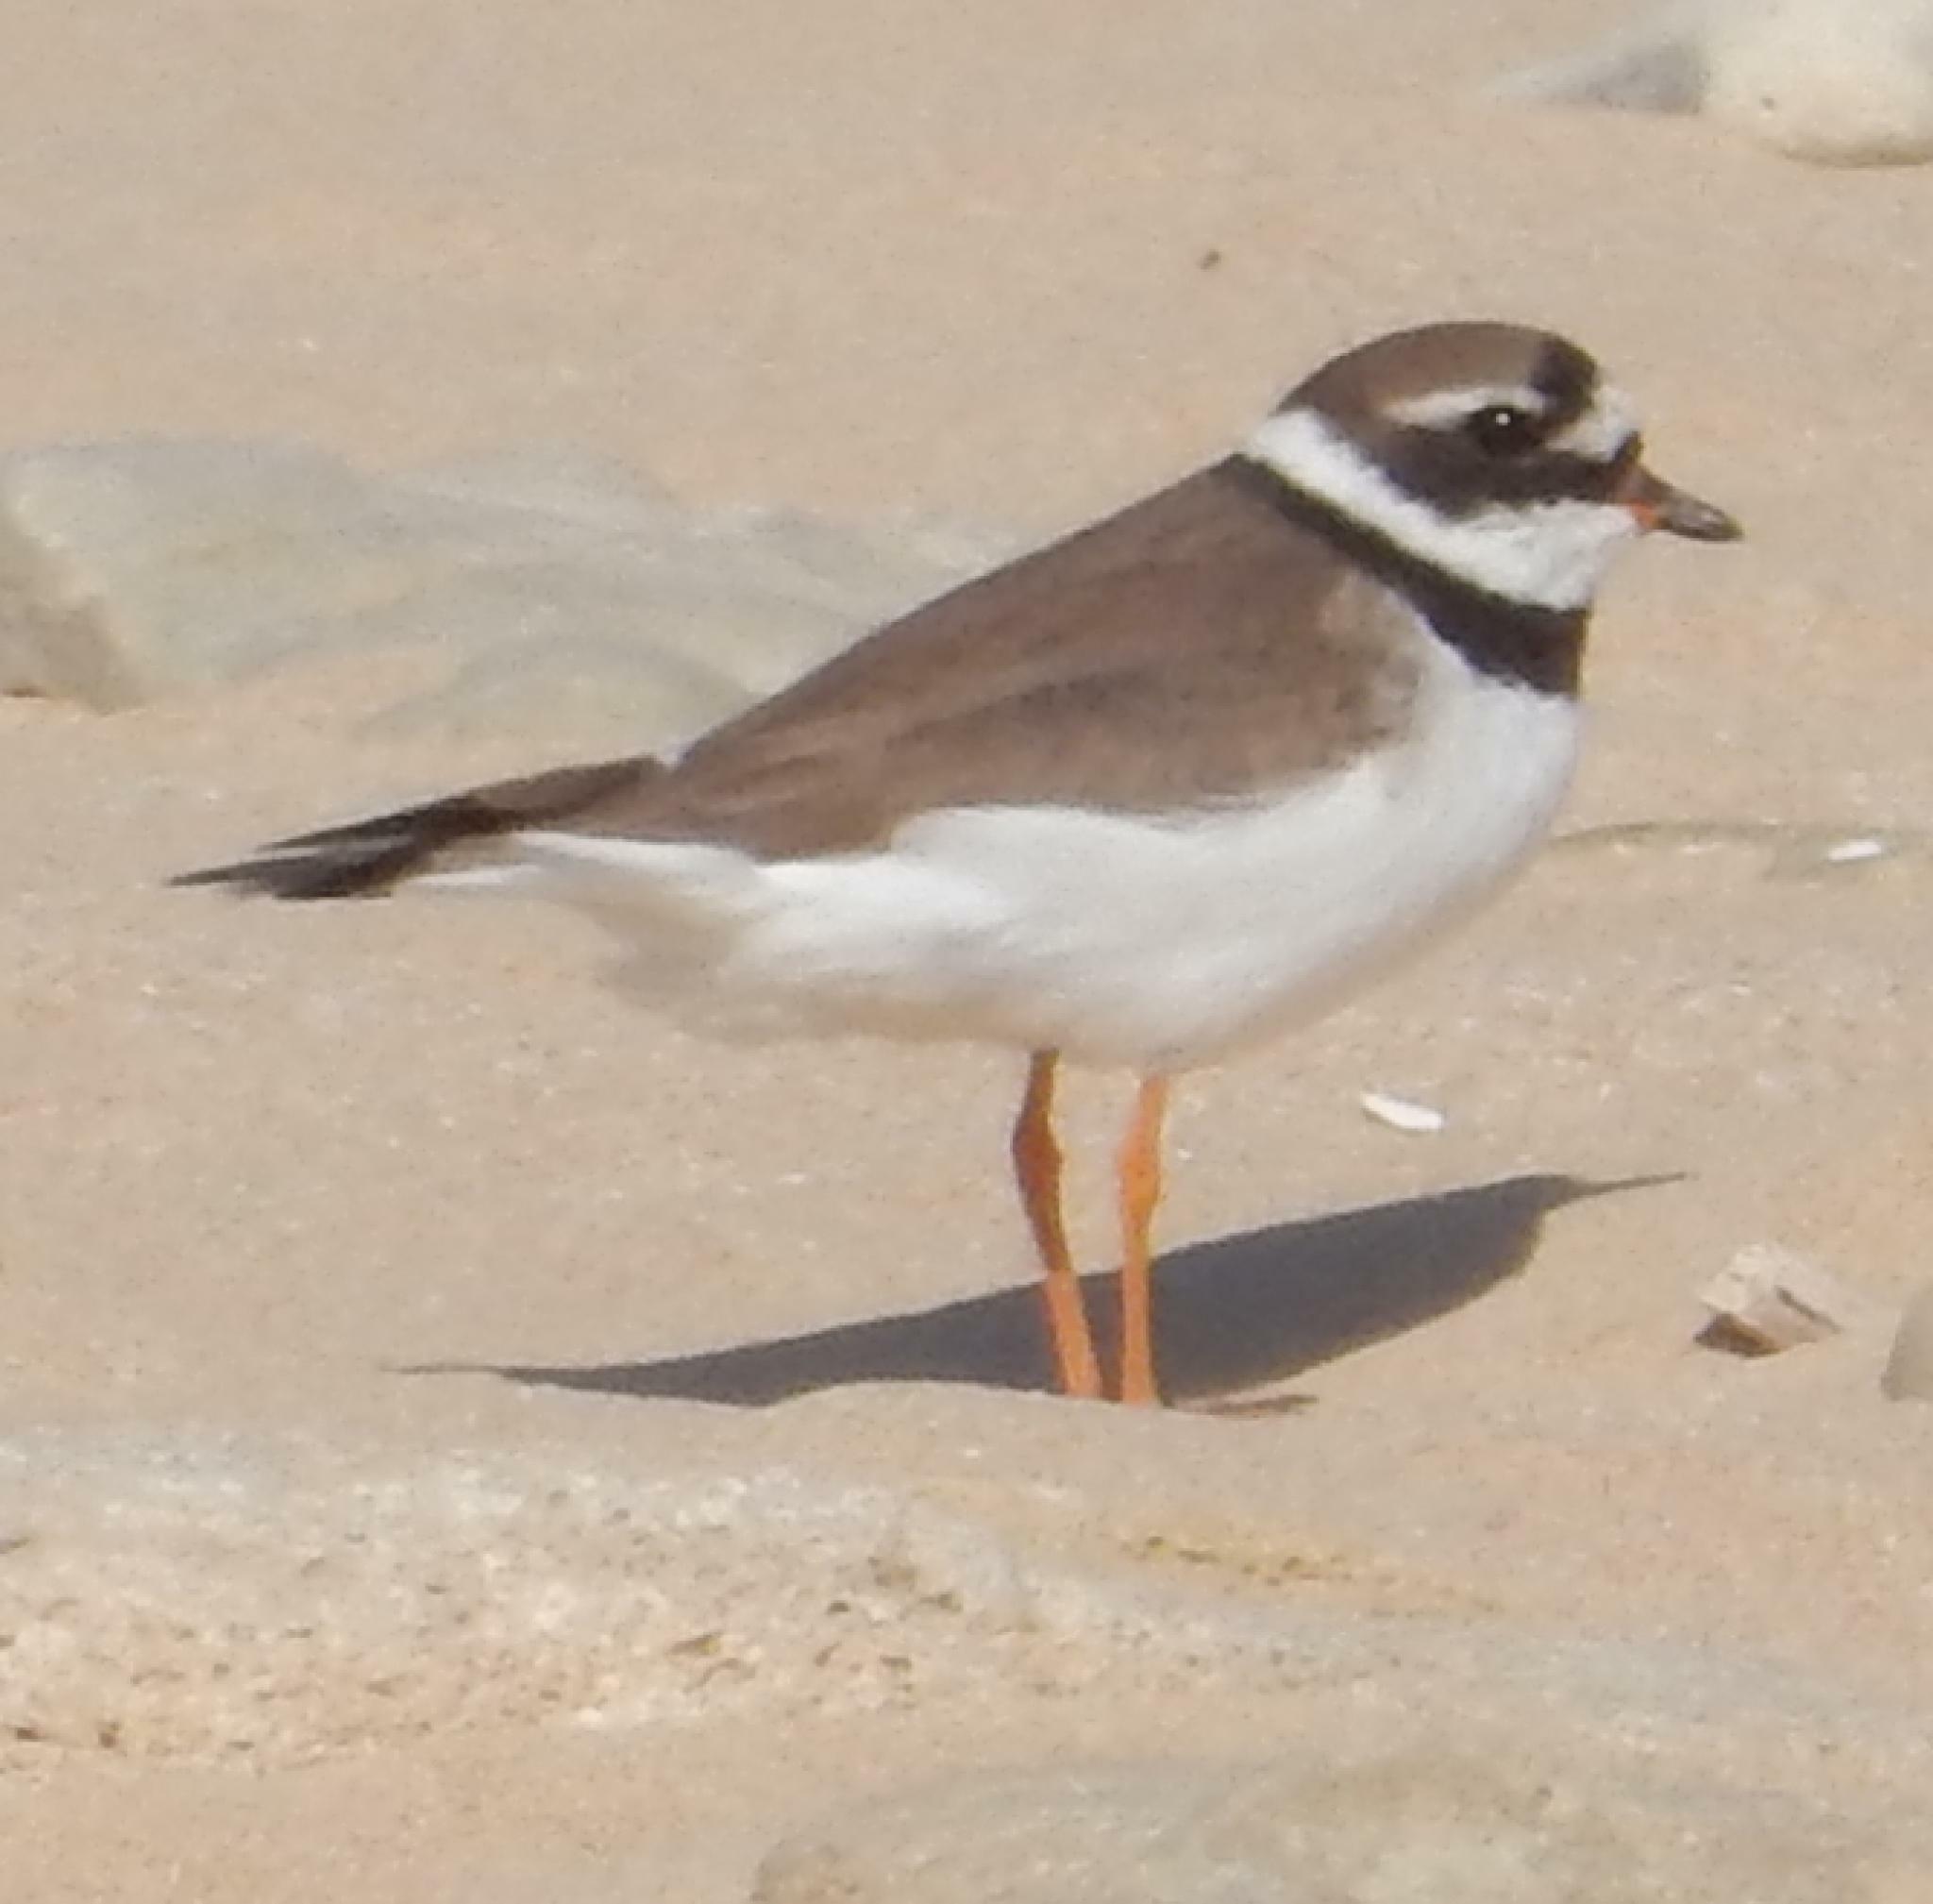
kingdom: Animalia
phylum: Chordata
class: Aves
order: Charadriiformes
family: Charadriidae
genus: Charadrius
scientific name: Charadrius hiaticula
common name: Common ringed plover
